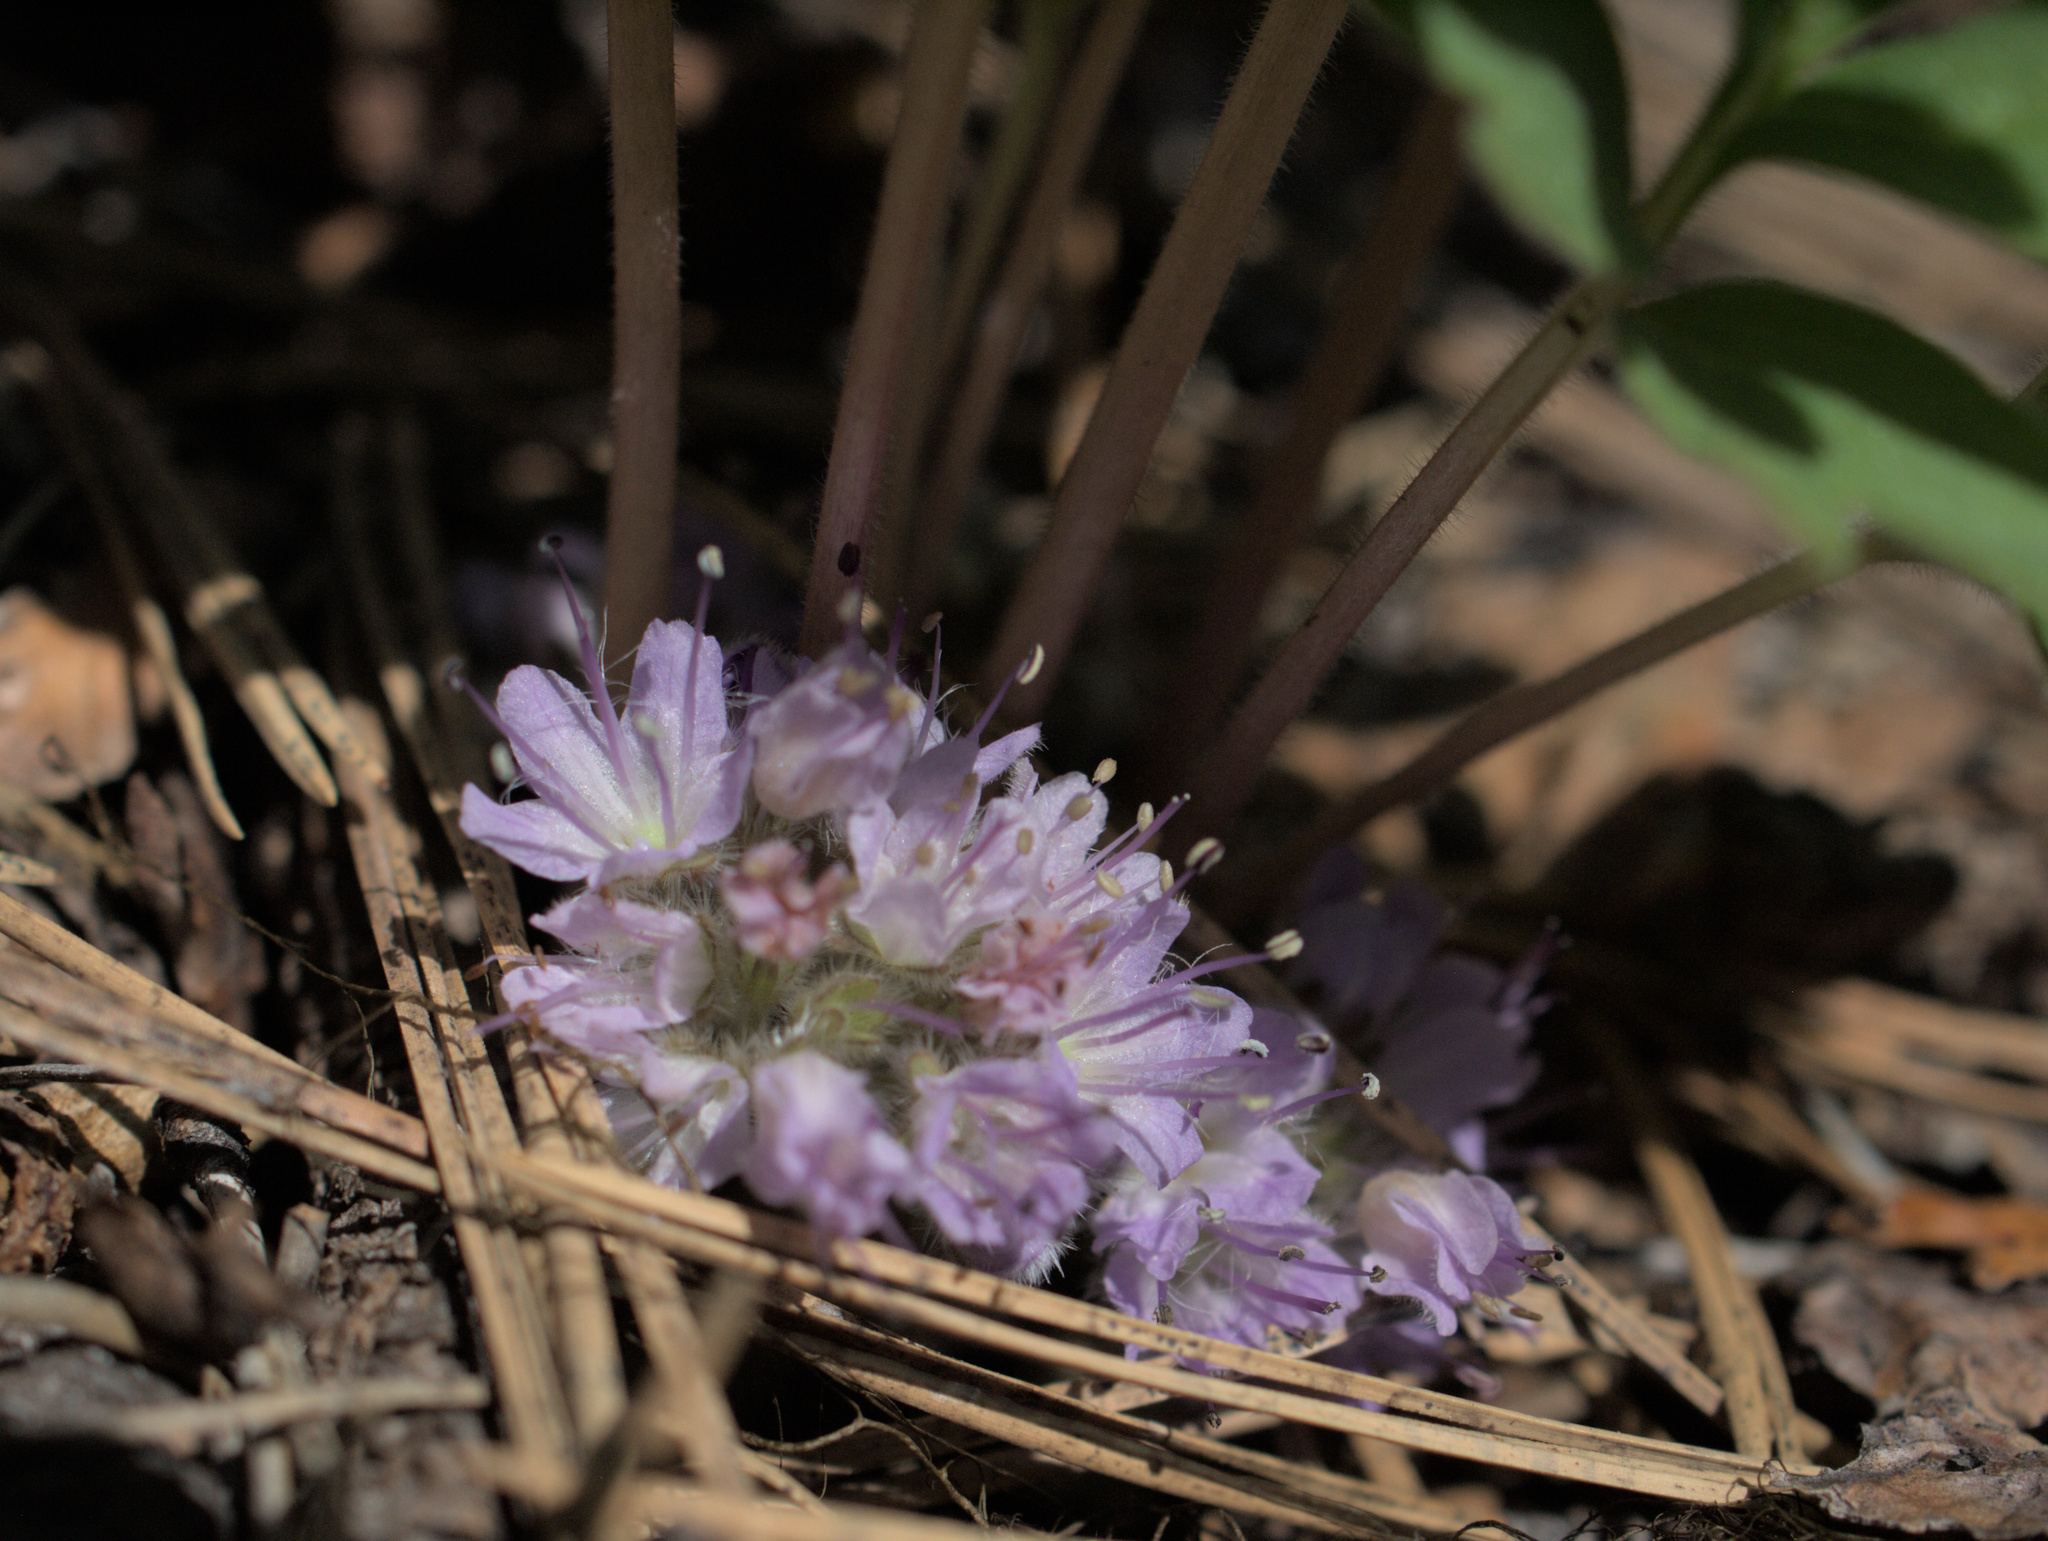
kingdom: Plantae
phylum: Tracheophyta
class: Magnoliopsida
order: Boraginales
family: Hydrophyllaceae
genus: Hydrophyllum
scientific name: Hydrophyllum alpestre
